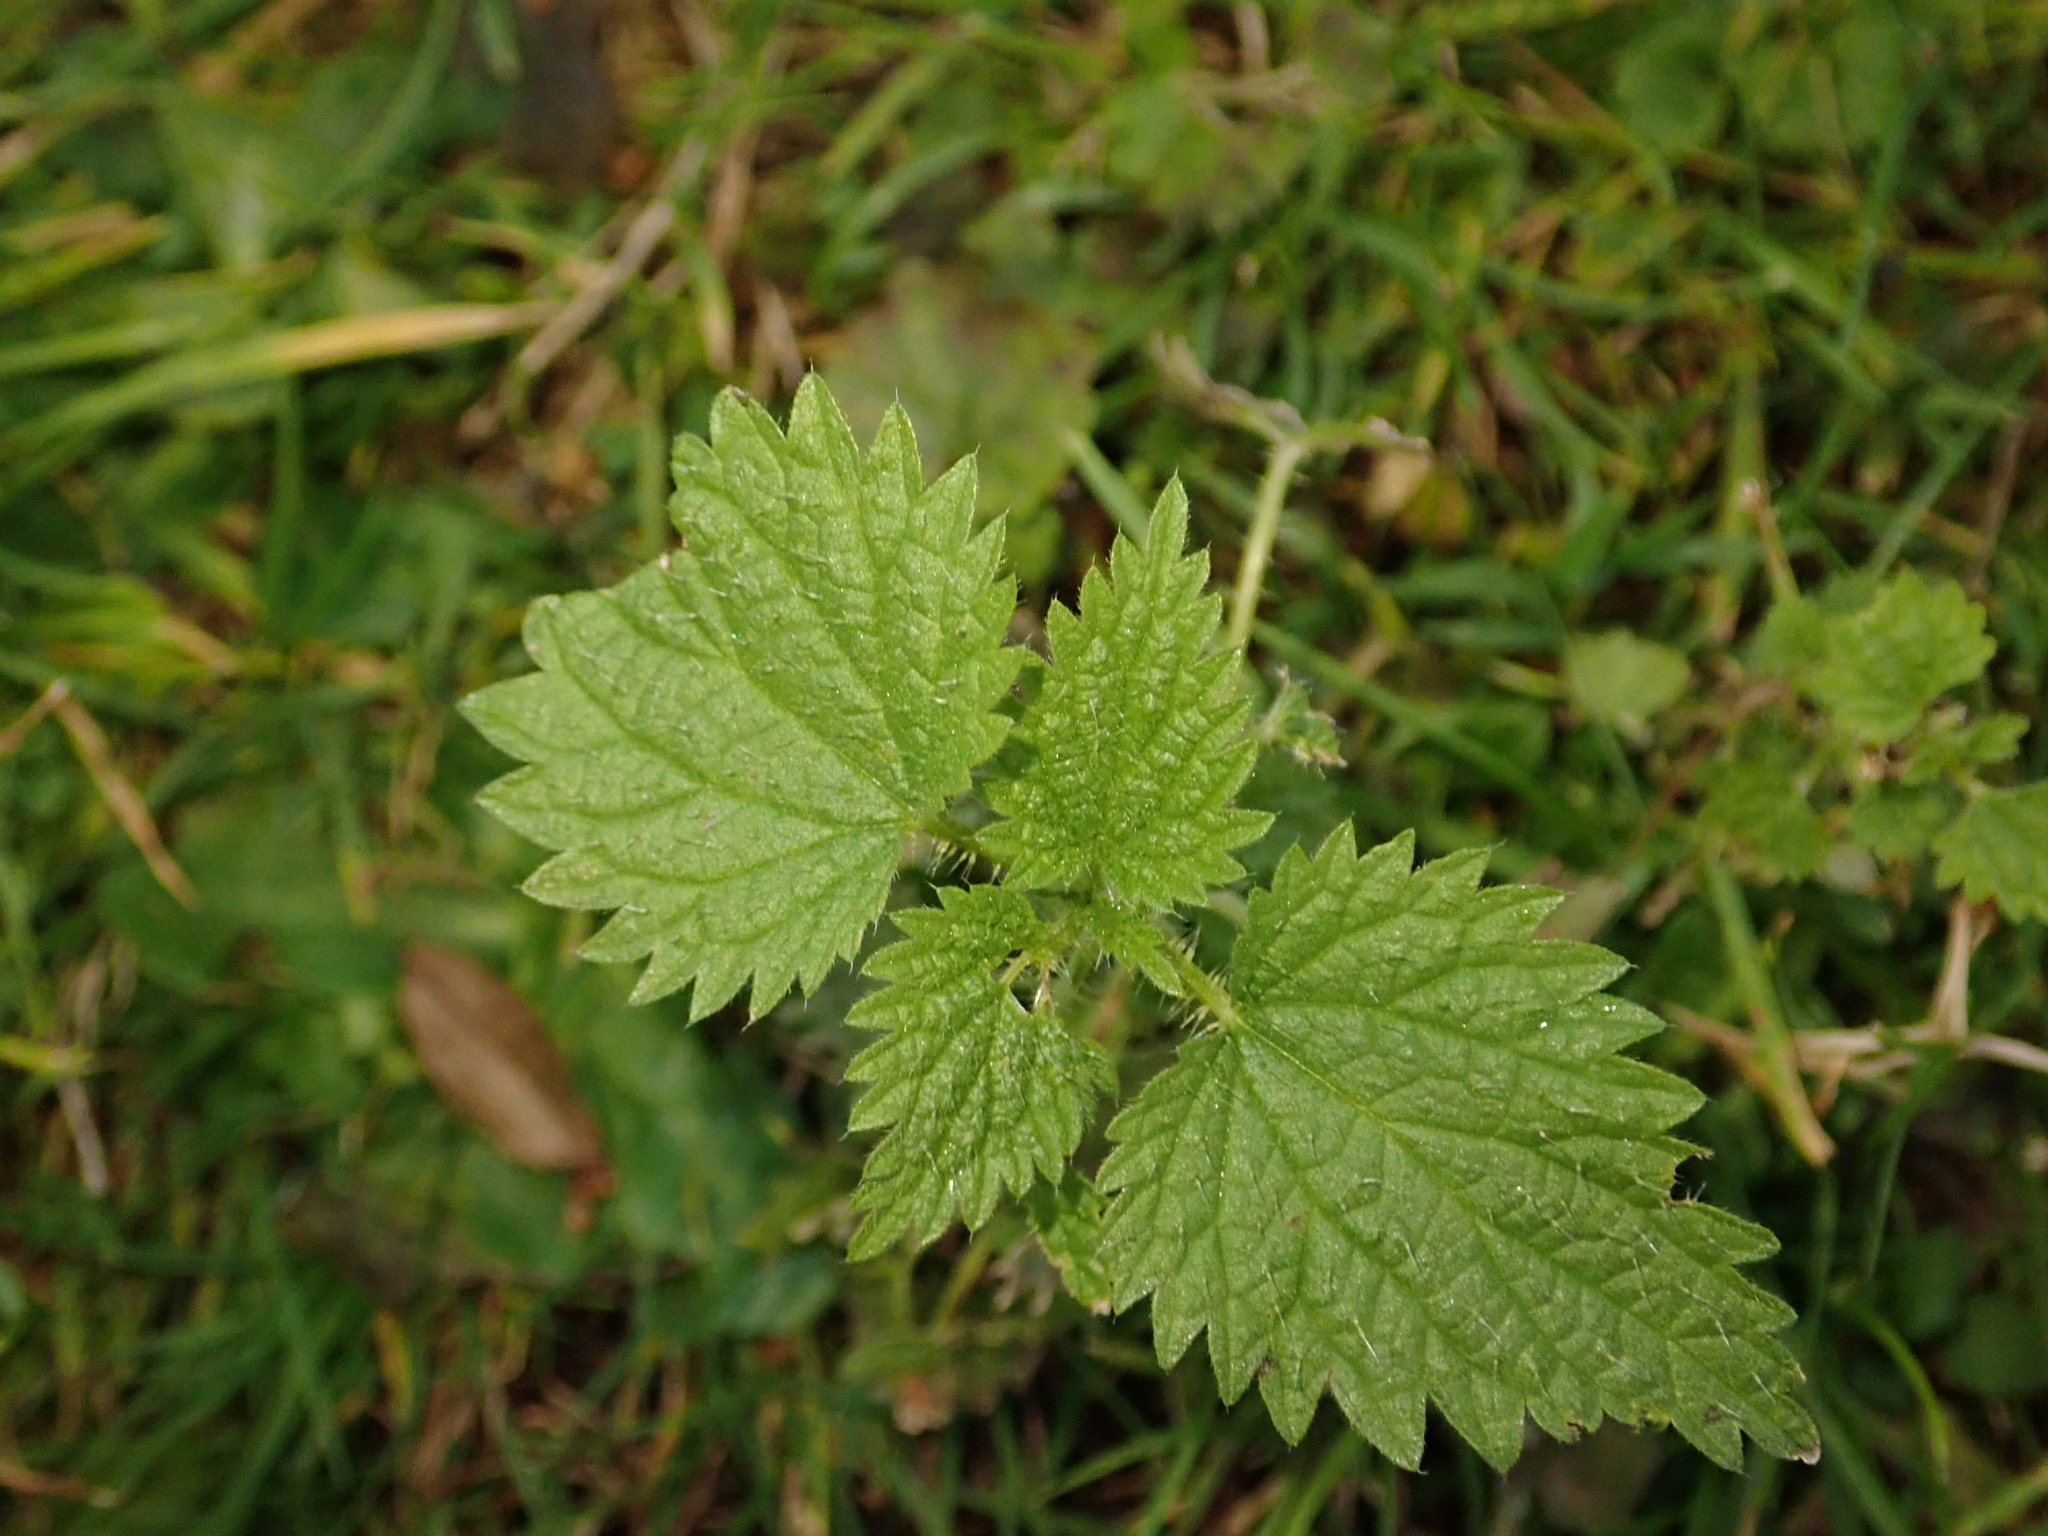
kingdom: Plantae
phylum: Tracheophyta
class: Magnoliopsida
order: Rosales
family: Urticaceae
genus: Urtica
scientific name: Urtica dioica
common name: Common nettle
